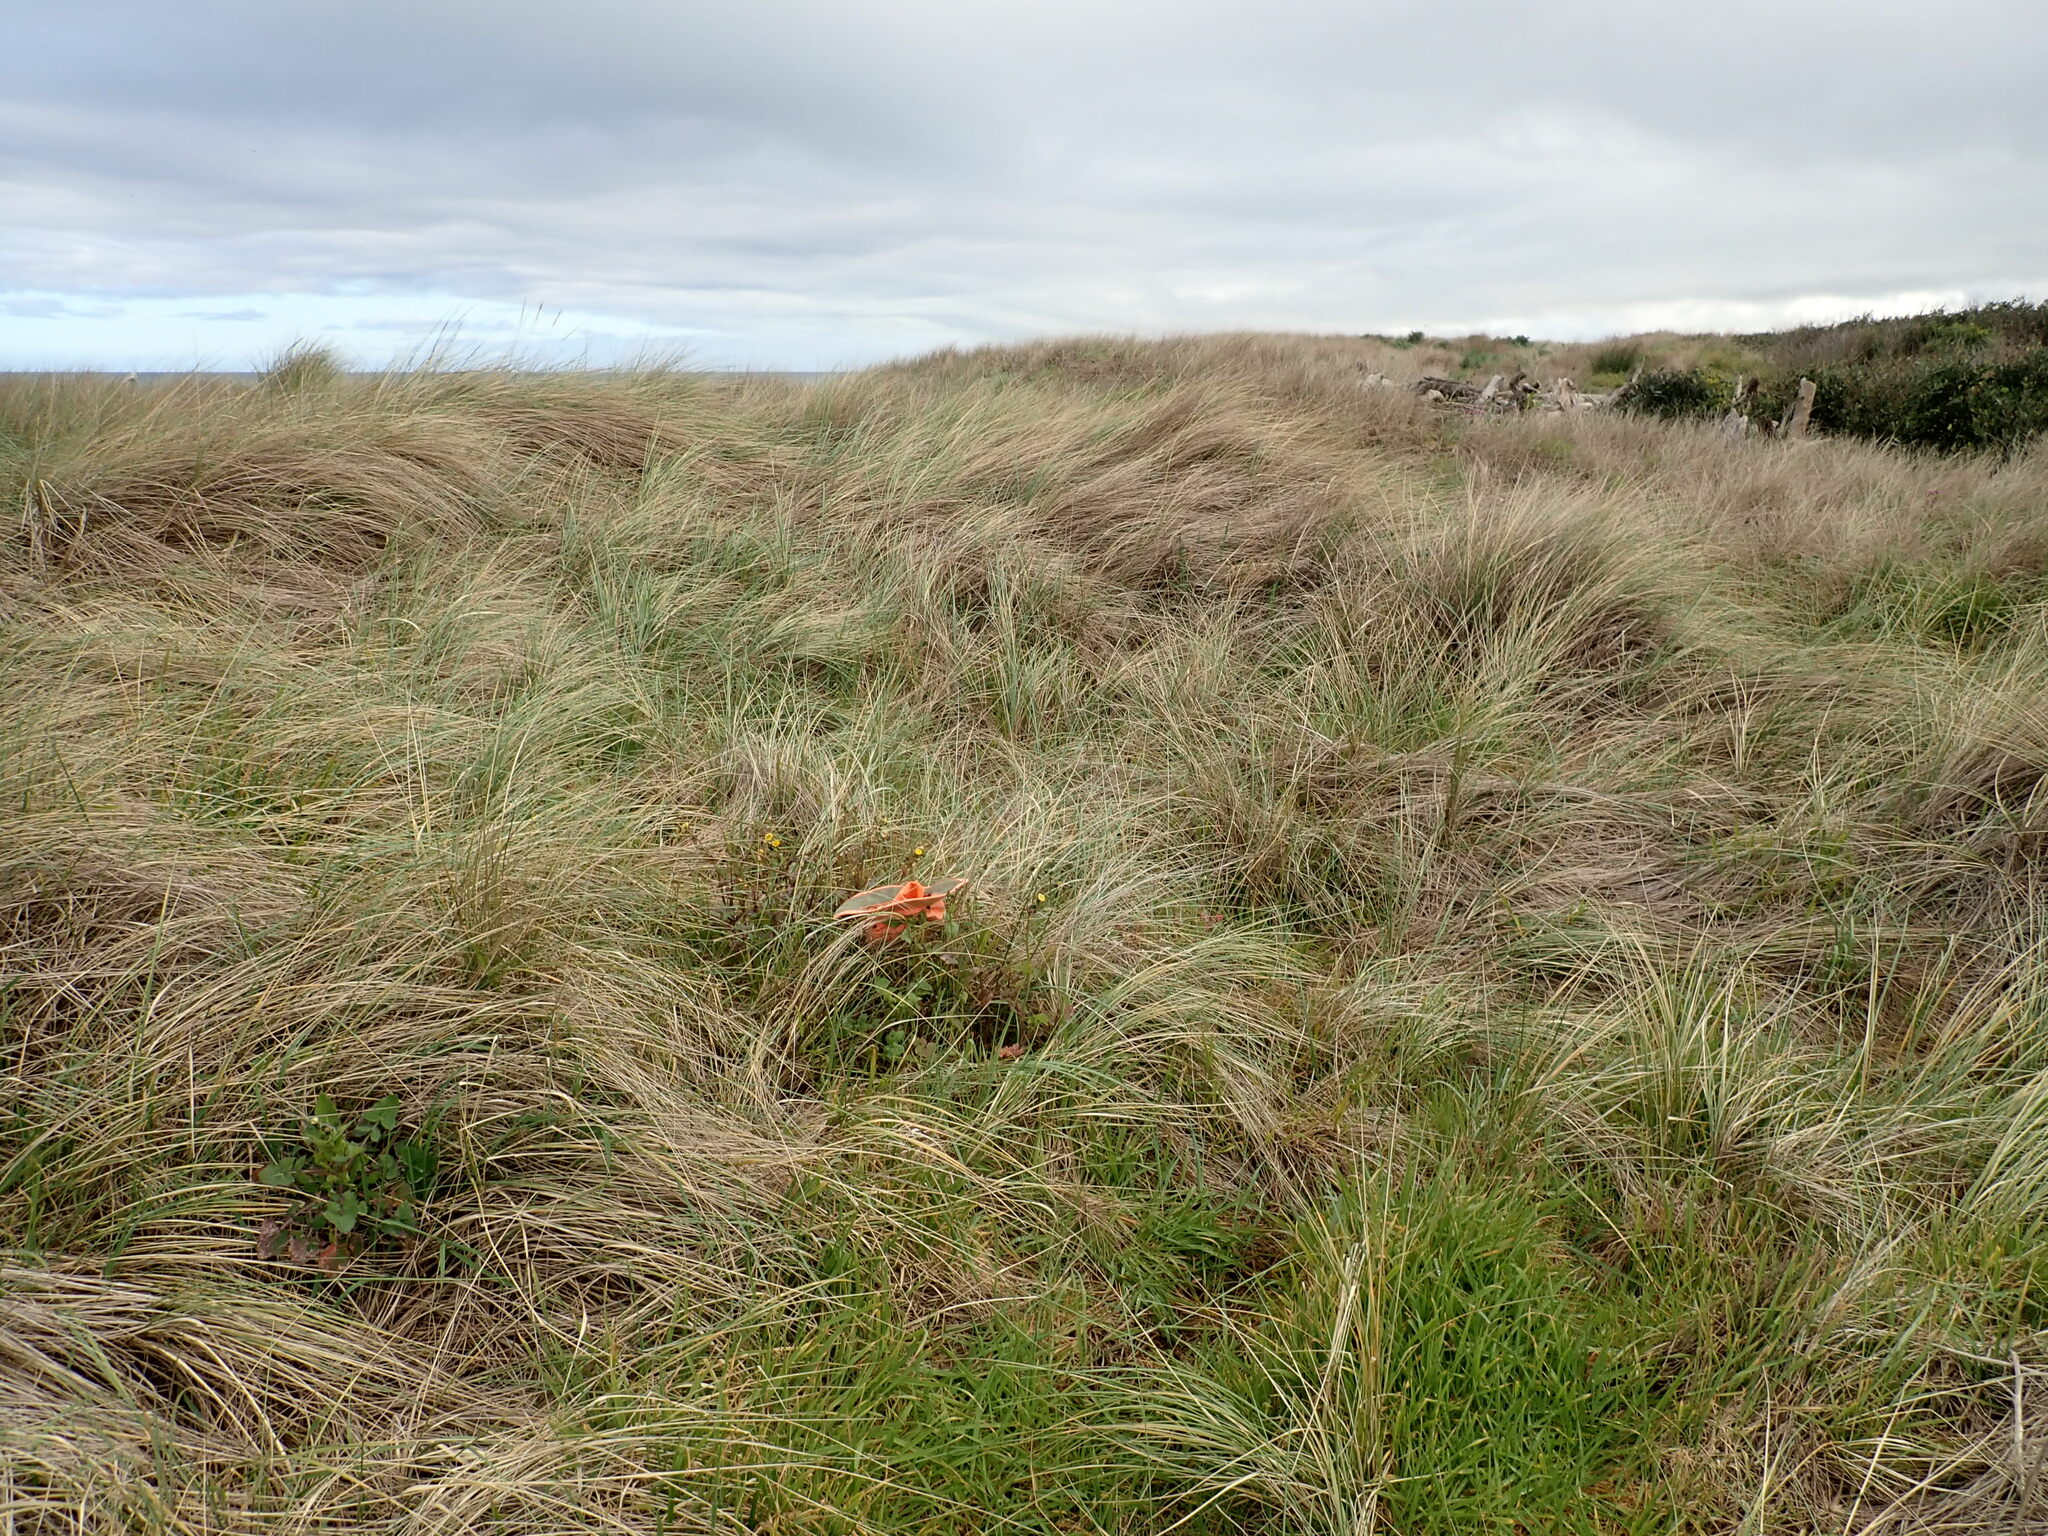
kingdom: Plantae
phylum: Tracheophyta
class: Magnoliopsida
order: Asterales
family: Asteraceae
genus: Sonchus
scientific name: Sonchus oleraceus
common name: Common sowthistle
